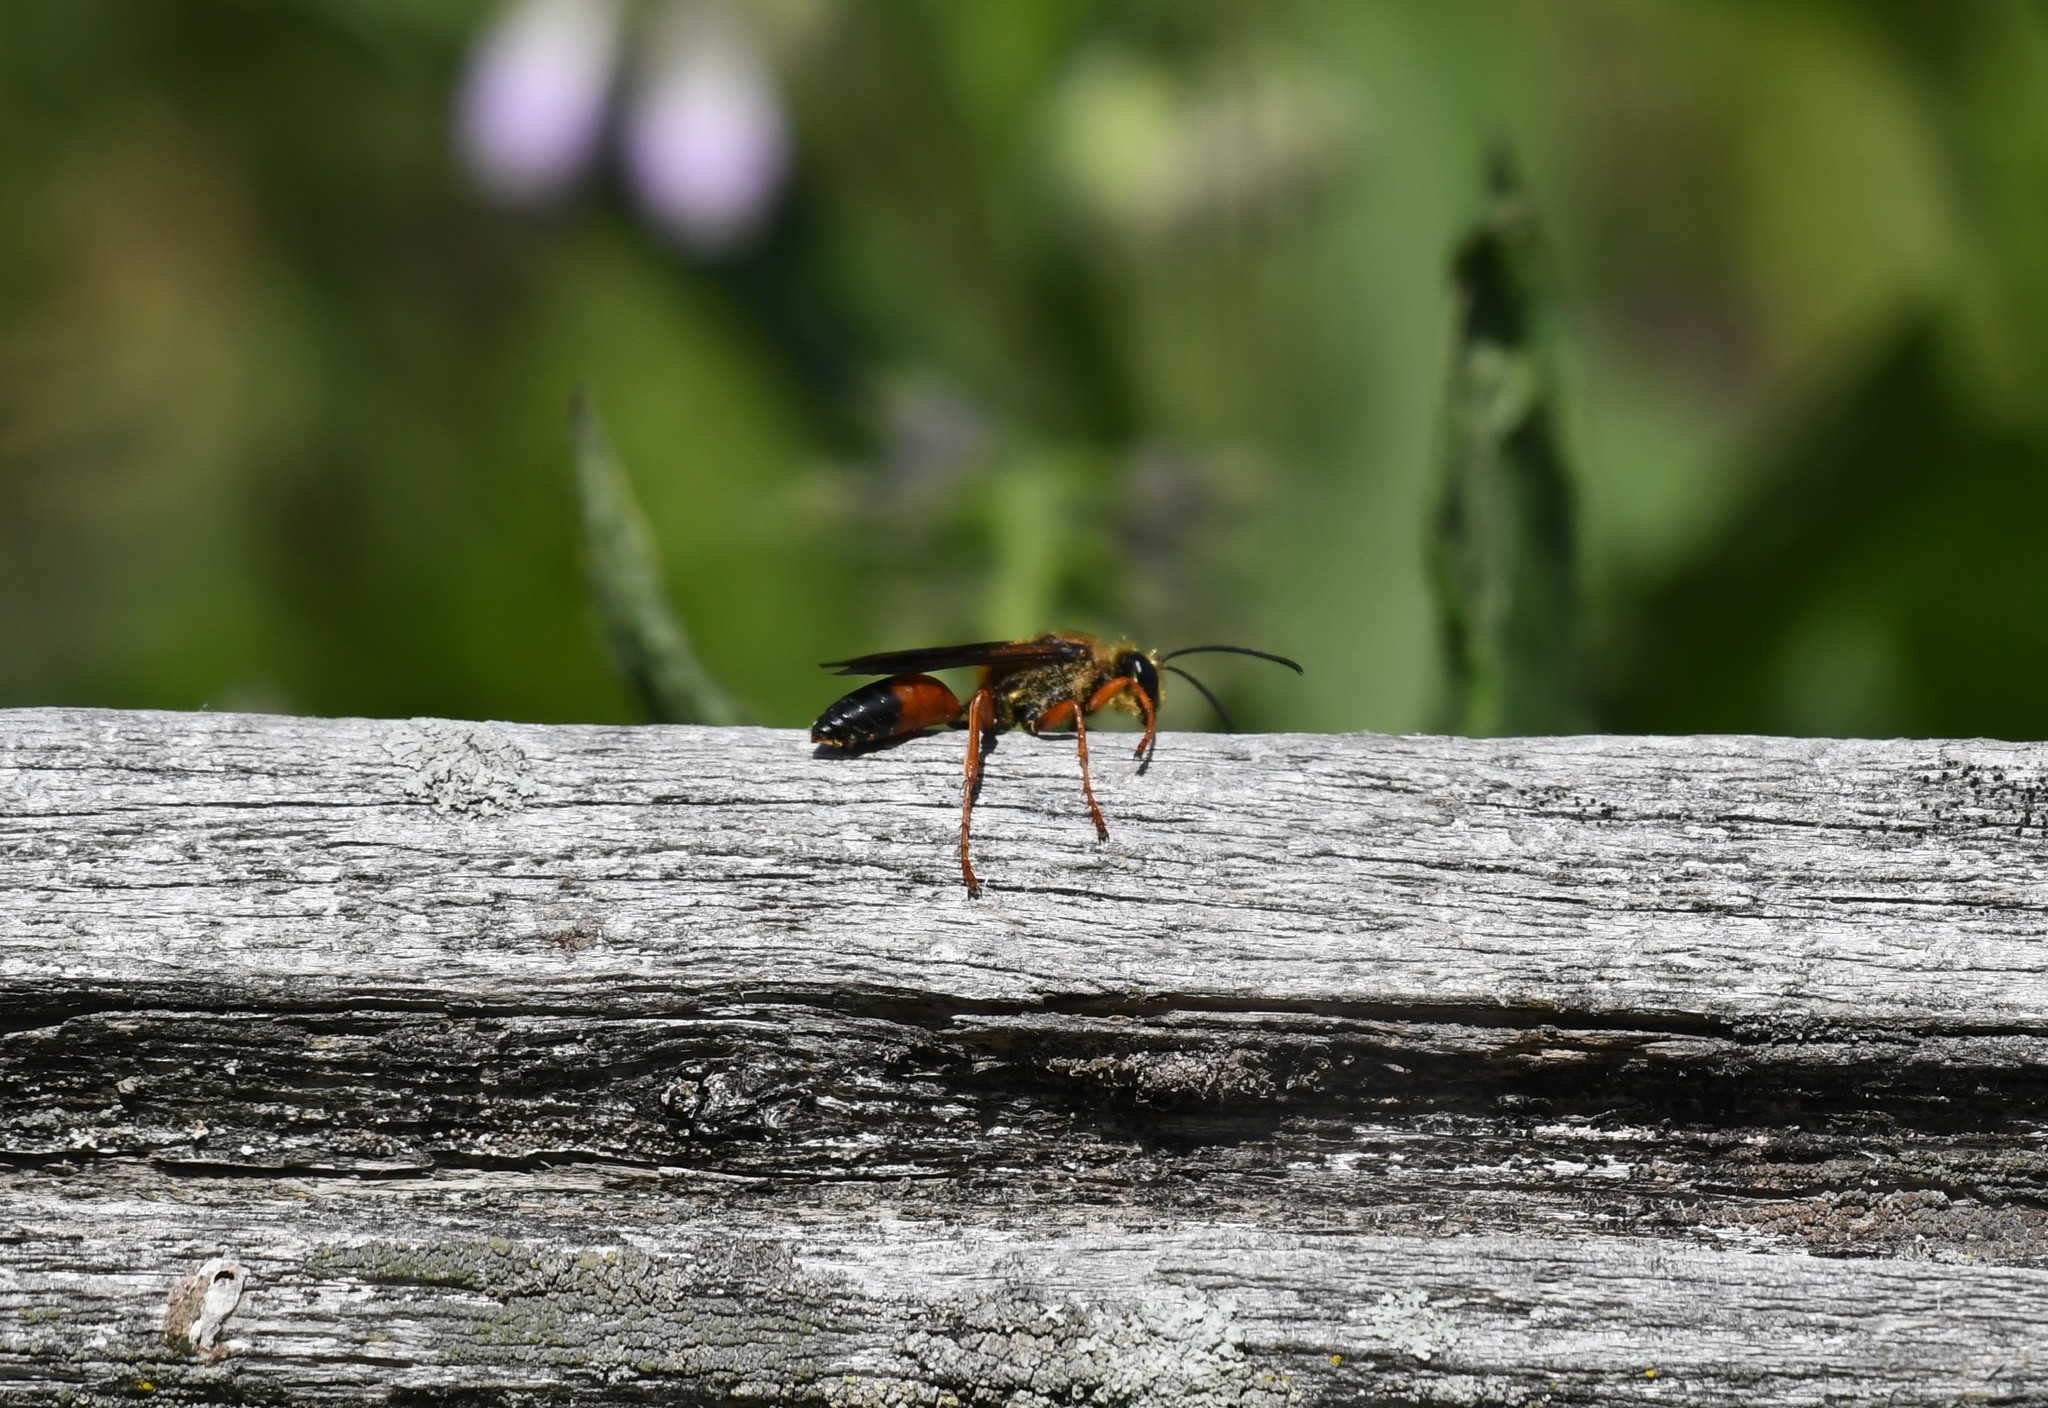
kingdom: Animalia
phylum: Arthropoda
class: Insecta
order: Hymenoptera
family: Sphecidae
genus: Sphex
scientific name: Sphex ichneumoneus
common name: Great golden digger wasp
